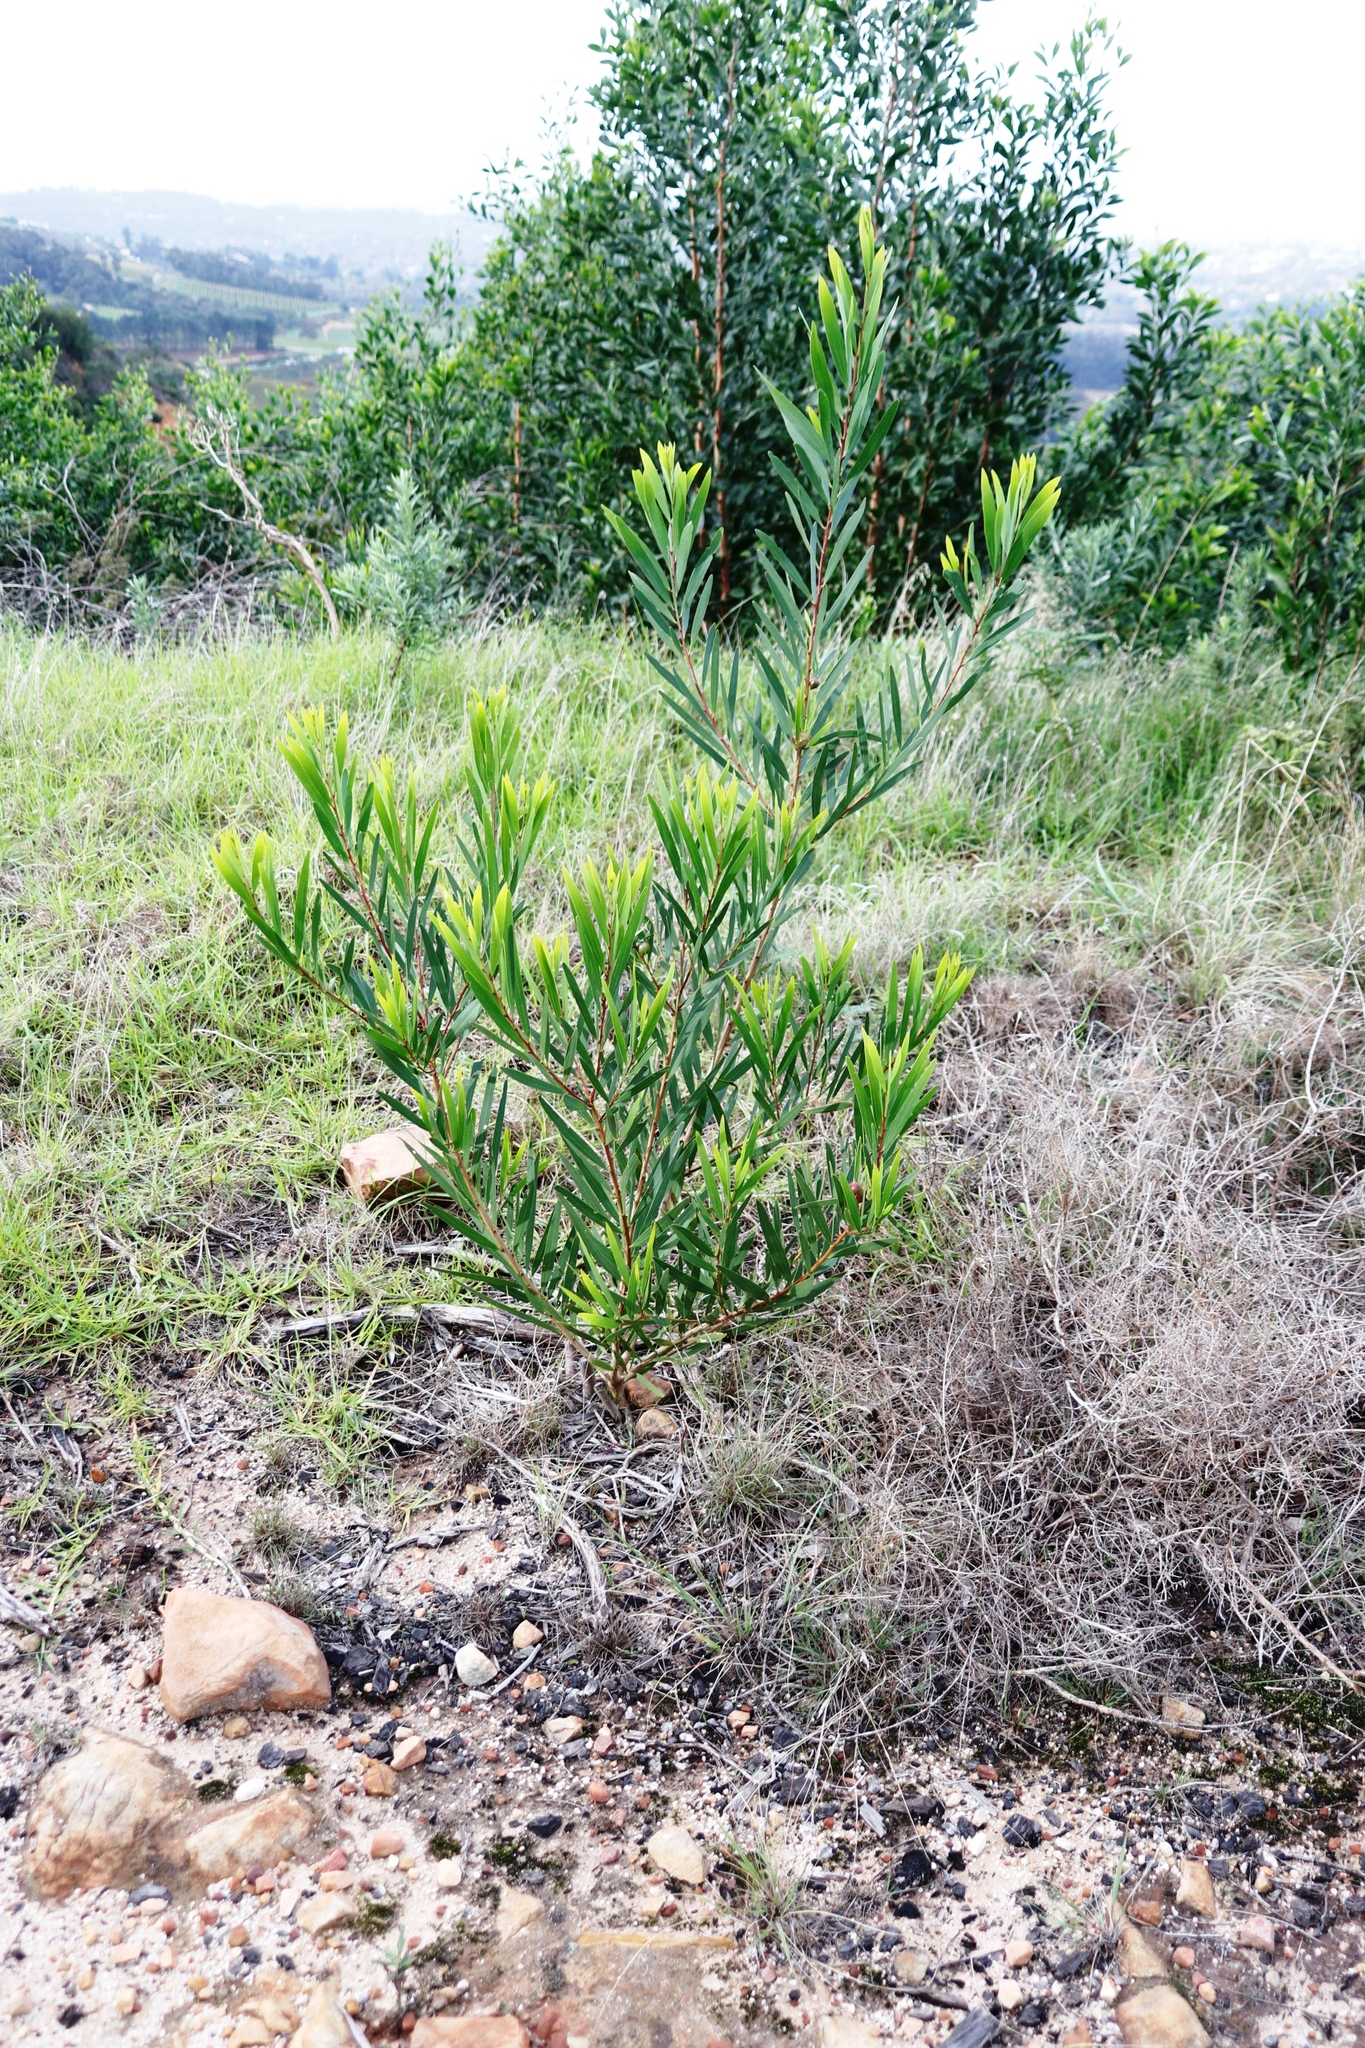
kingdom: Plantae
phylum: Tracheophyta
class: Magnoliopsida
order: Fabales
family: Fabaceae
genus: Acacia
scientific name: Acacia longifolia
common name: Sydney golden wattle
